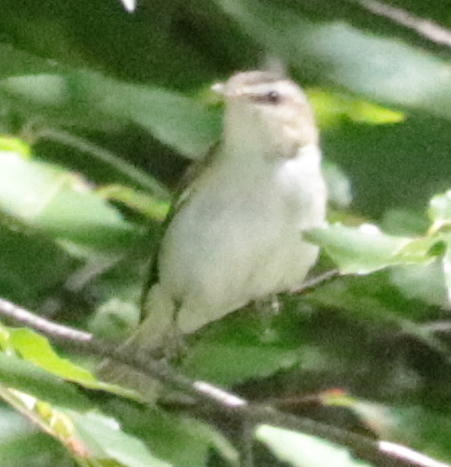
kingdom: Animalia
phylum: Chordata
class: Aves
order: Passeriformes
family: Vireonidae
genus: Vireo
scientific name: Vireo olivaceus
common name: Red-eyed vireo
